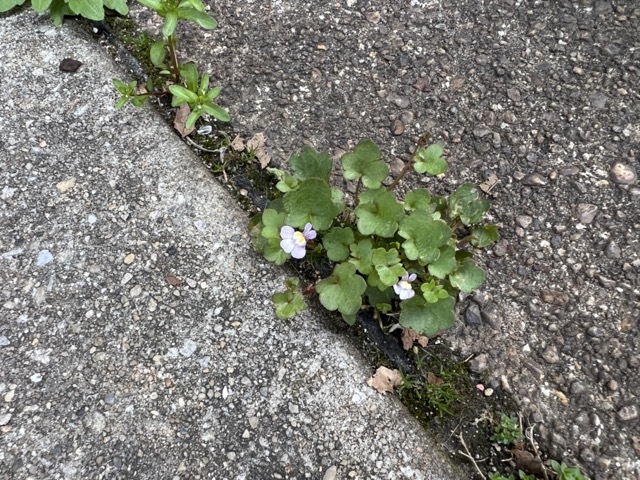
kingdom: Plantae
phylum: Tracheophyta
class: Magnoliopsida
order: Lamiales
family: Plantaginaceae
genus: Cymbalaria
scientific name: Cymbalaria muralis
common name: Ivy-leaved toadflax
